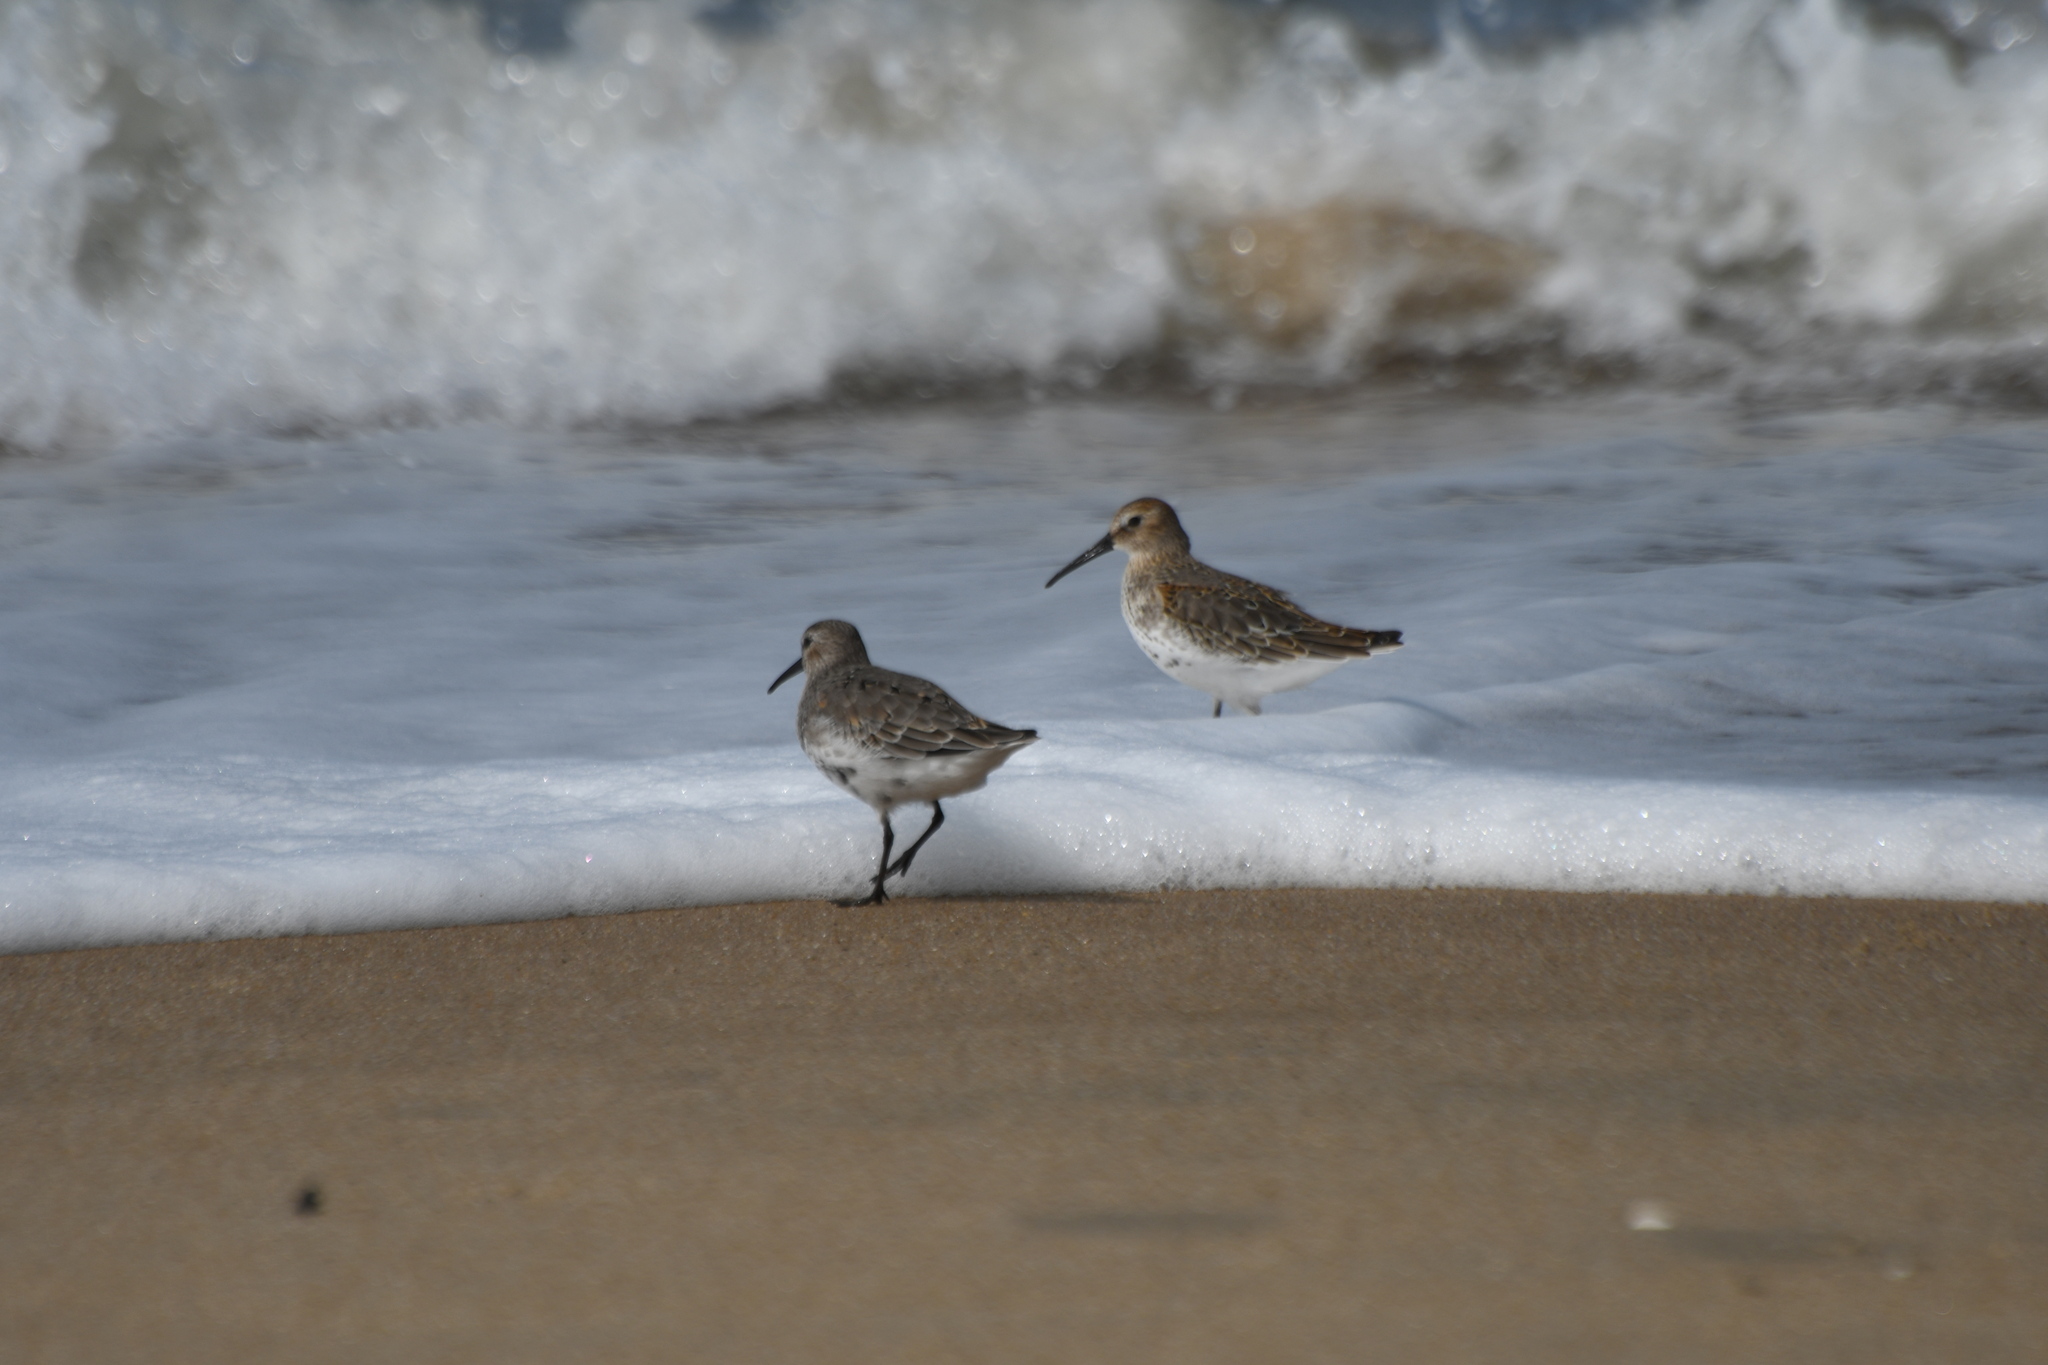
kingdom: Animalia
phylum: Chordata
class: Aves
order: Charadriiformes
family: Scolopacidae
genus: Calidris
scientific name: Calidris alpina
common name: Dunlin
